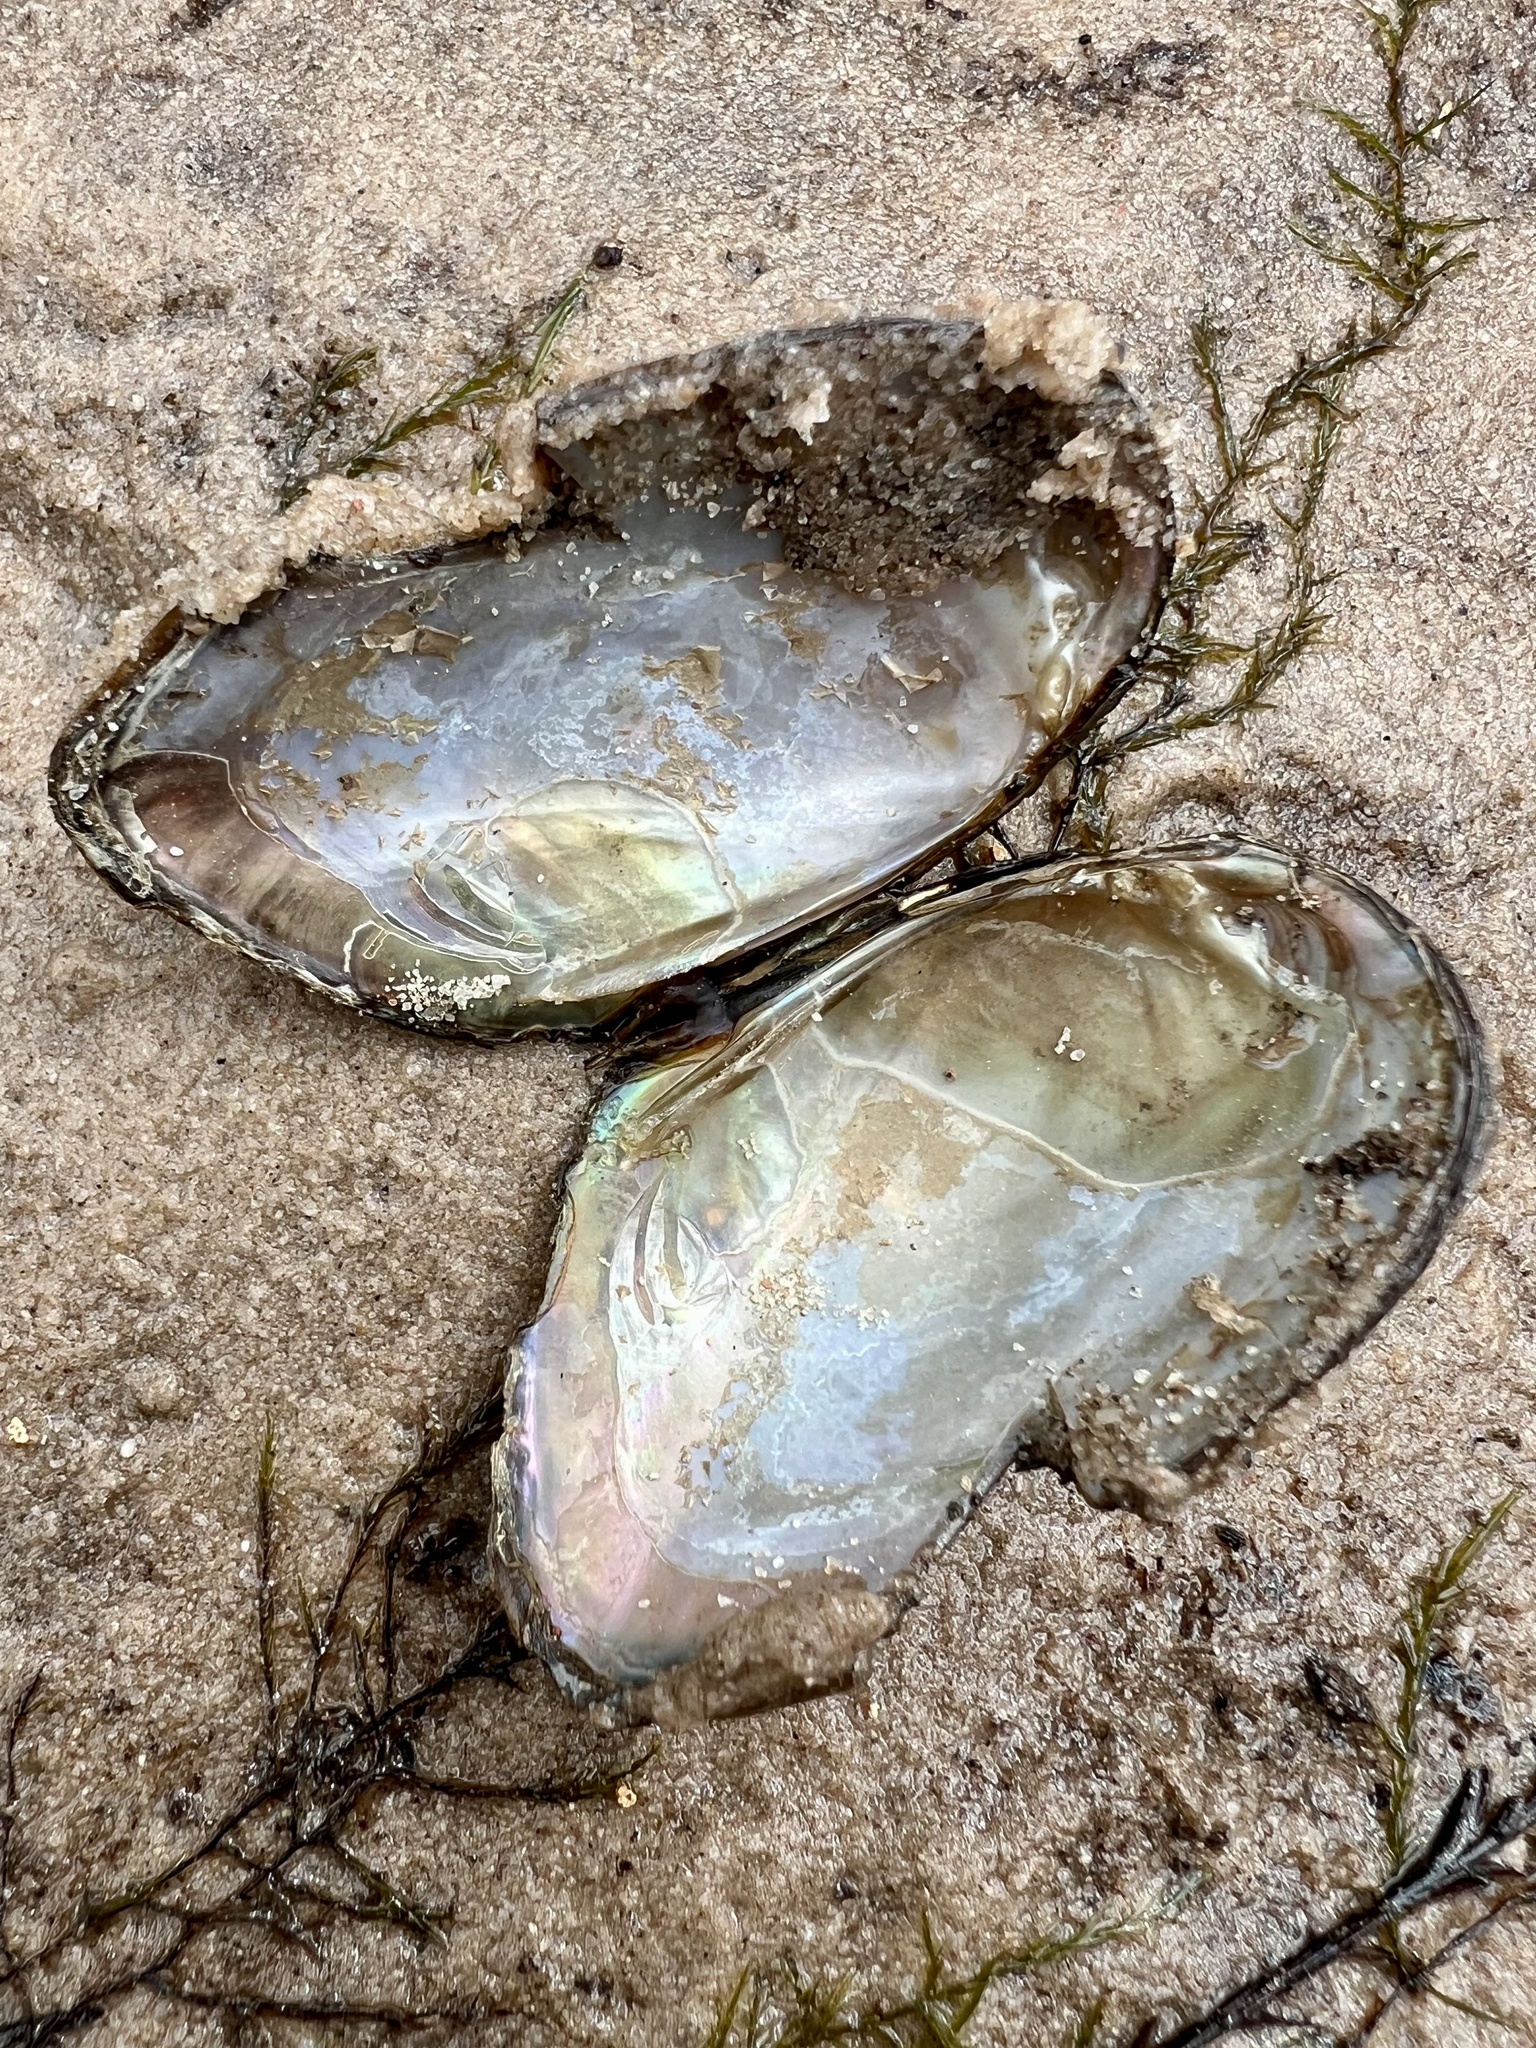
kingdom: Animalia
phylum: Mollusca
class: Bivalvia
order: Unionida
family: Unionidae
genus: Uniomerus
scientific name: Uniomerus declivis
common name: Tapered pondhorn
